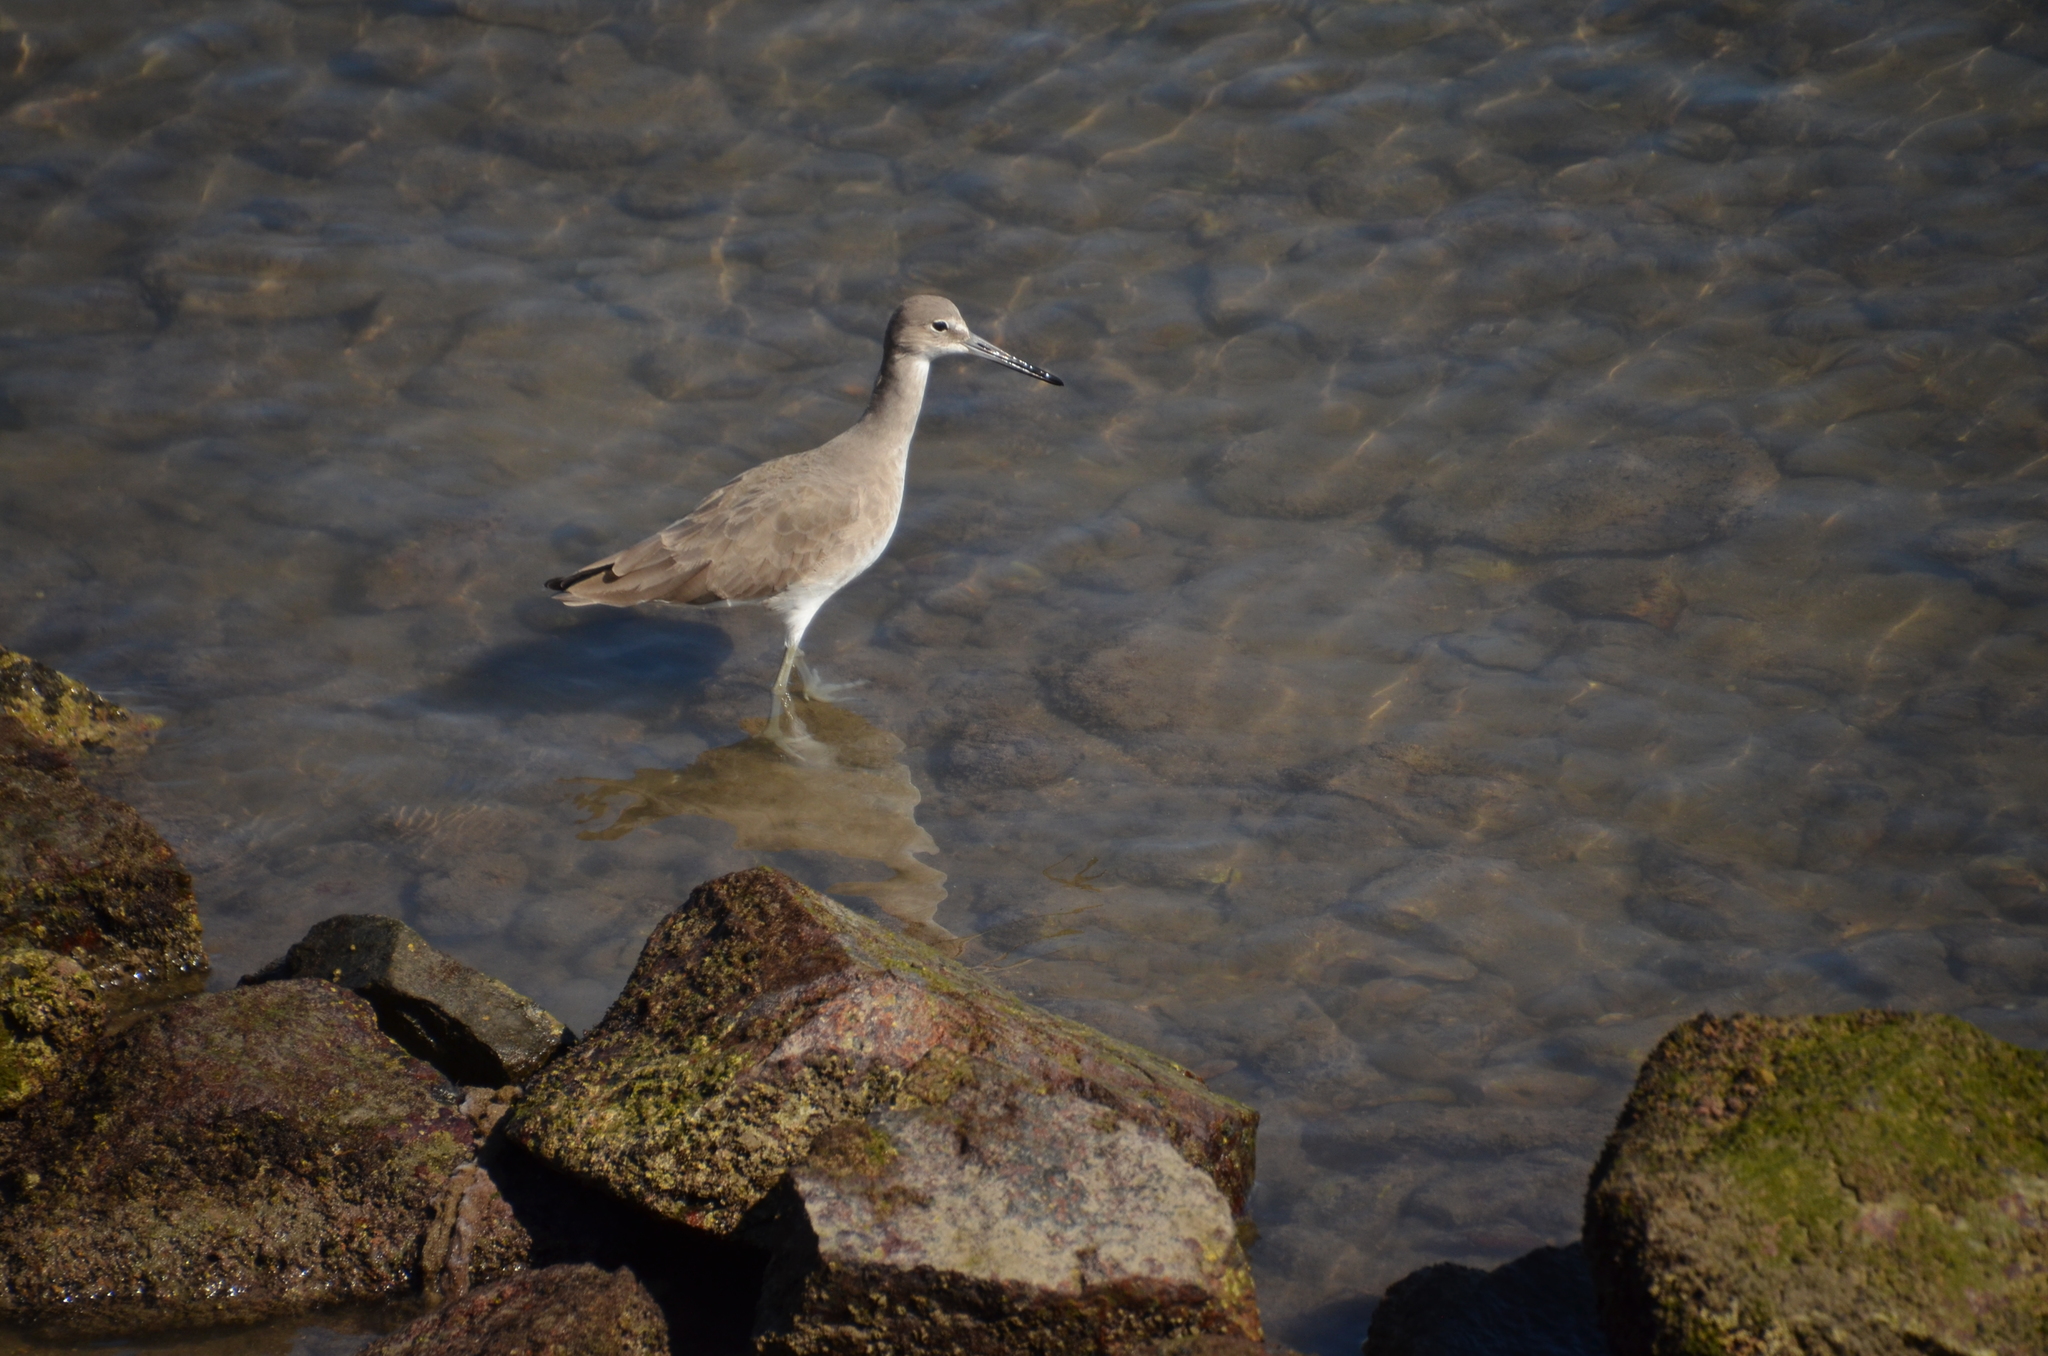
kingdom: Animalia
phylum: Chordata
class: Aves
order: Charadriiformes
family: Scolopacidae
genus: Tringa
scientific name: Tringa semipalmata
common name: Willet
